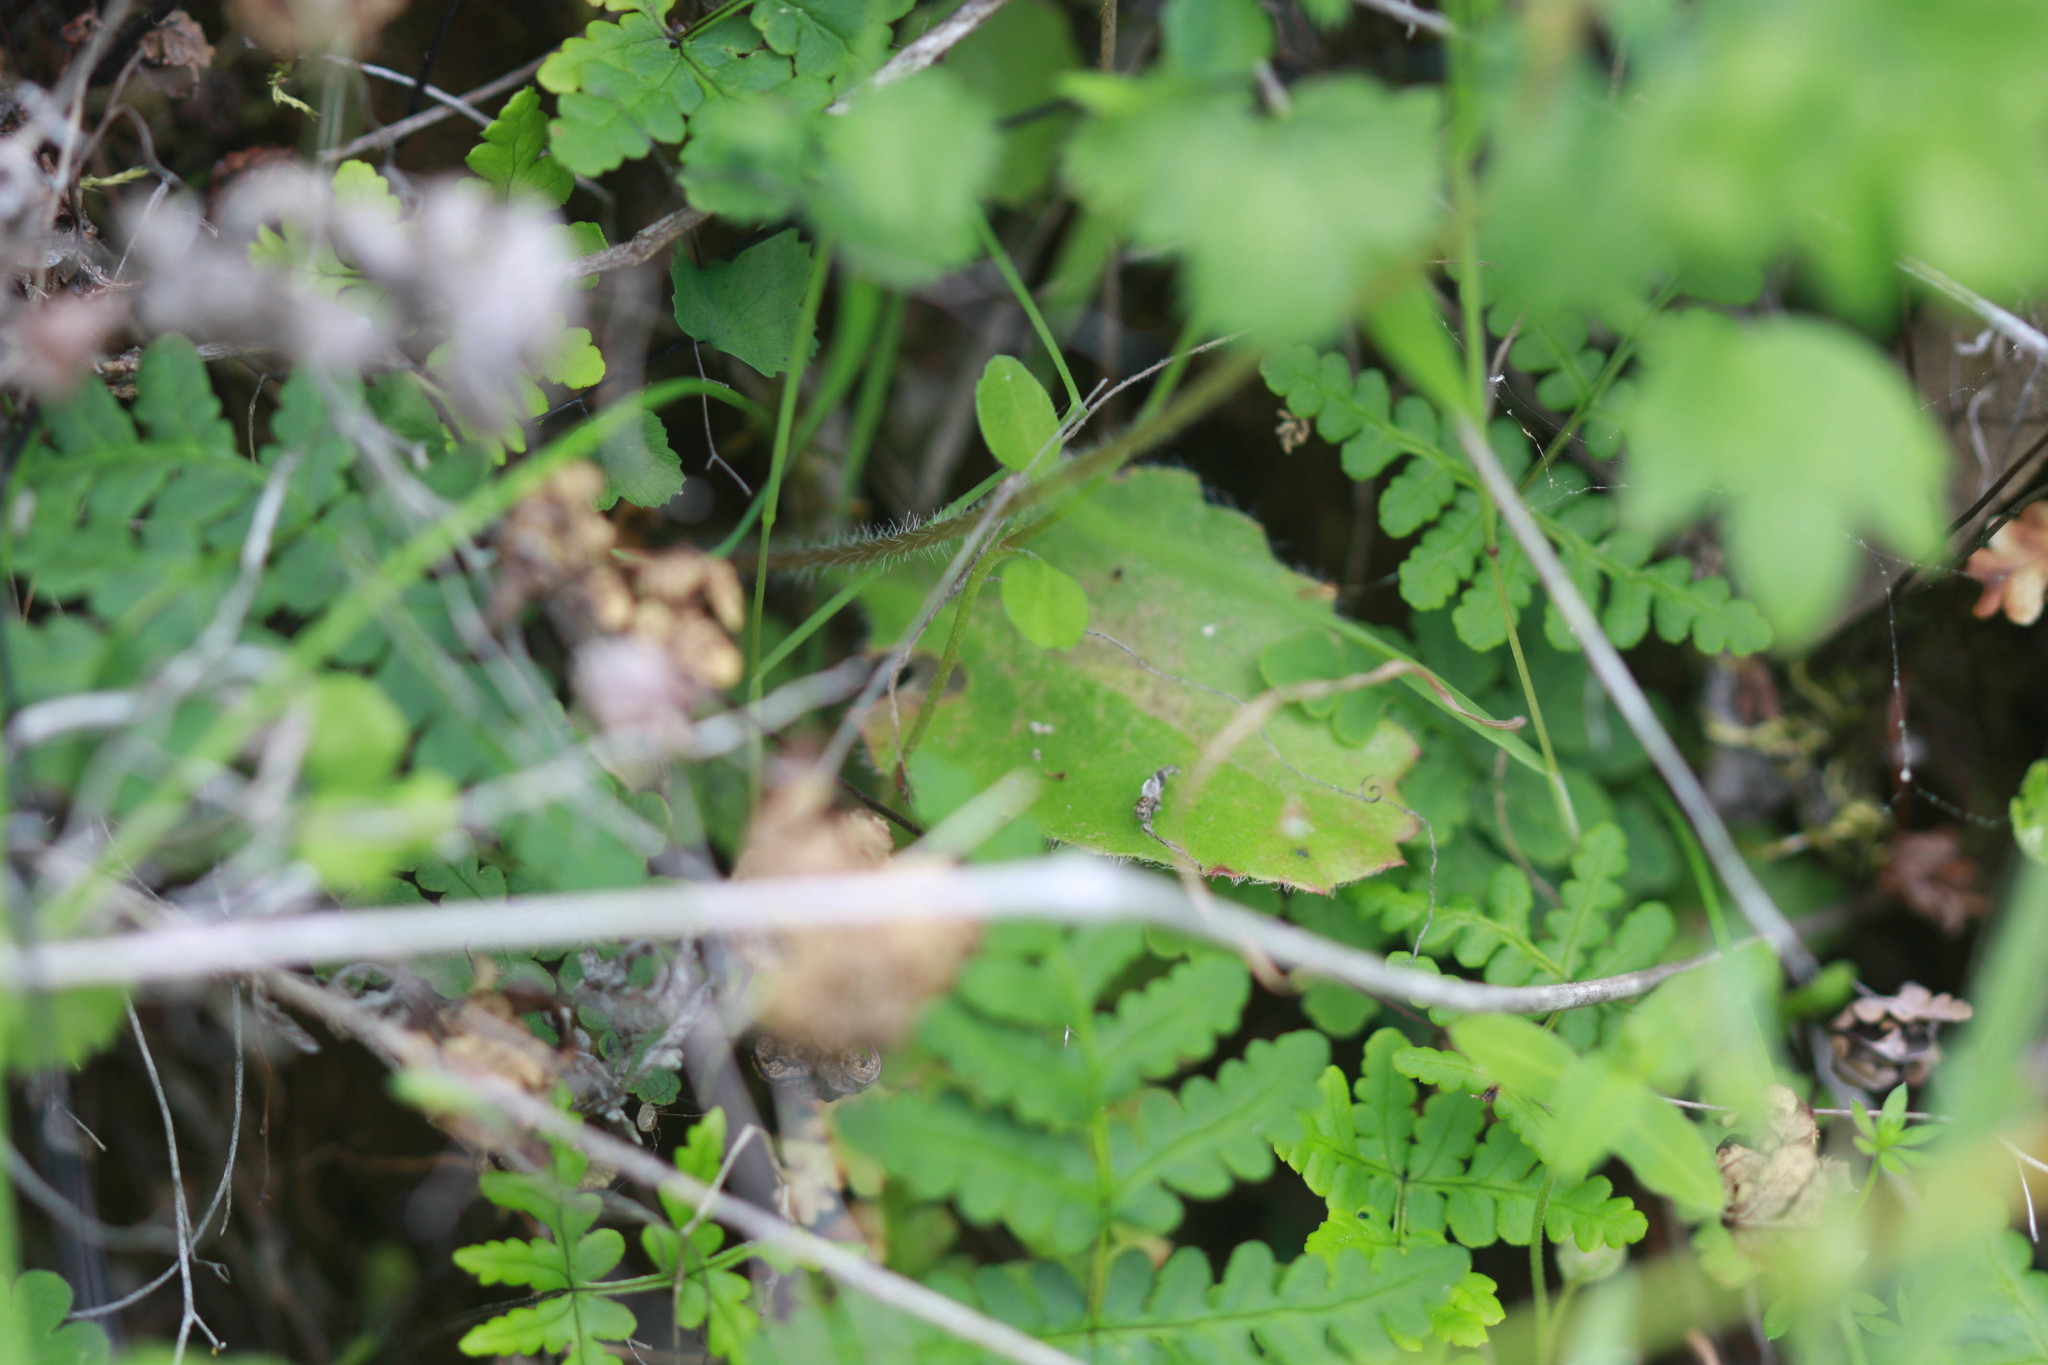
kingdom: Plantae
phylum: Tracheophyta
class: Magnoliopsida
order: Saxifragales
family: Saxifragaceae
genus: Micranthes
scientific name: Micranthes californica
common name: California saxifrage
